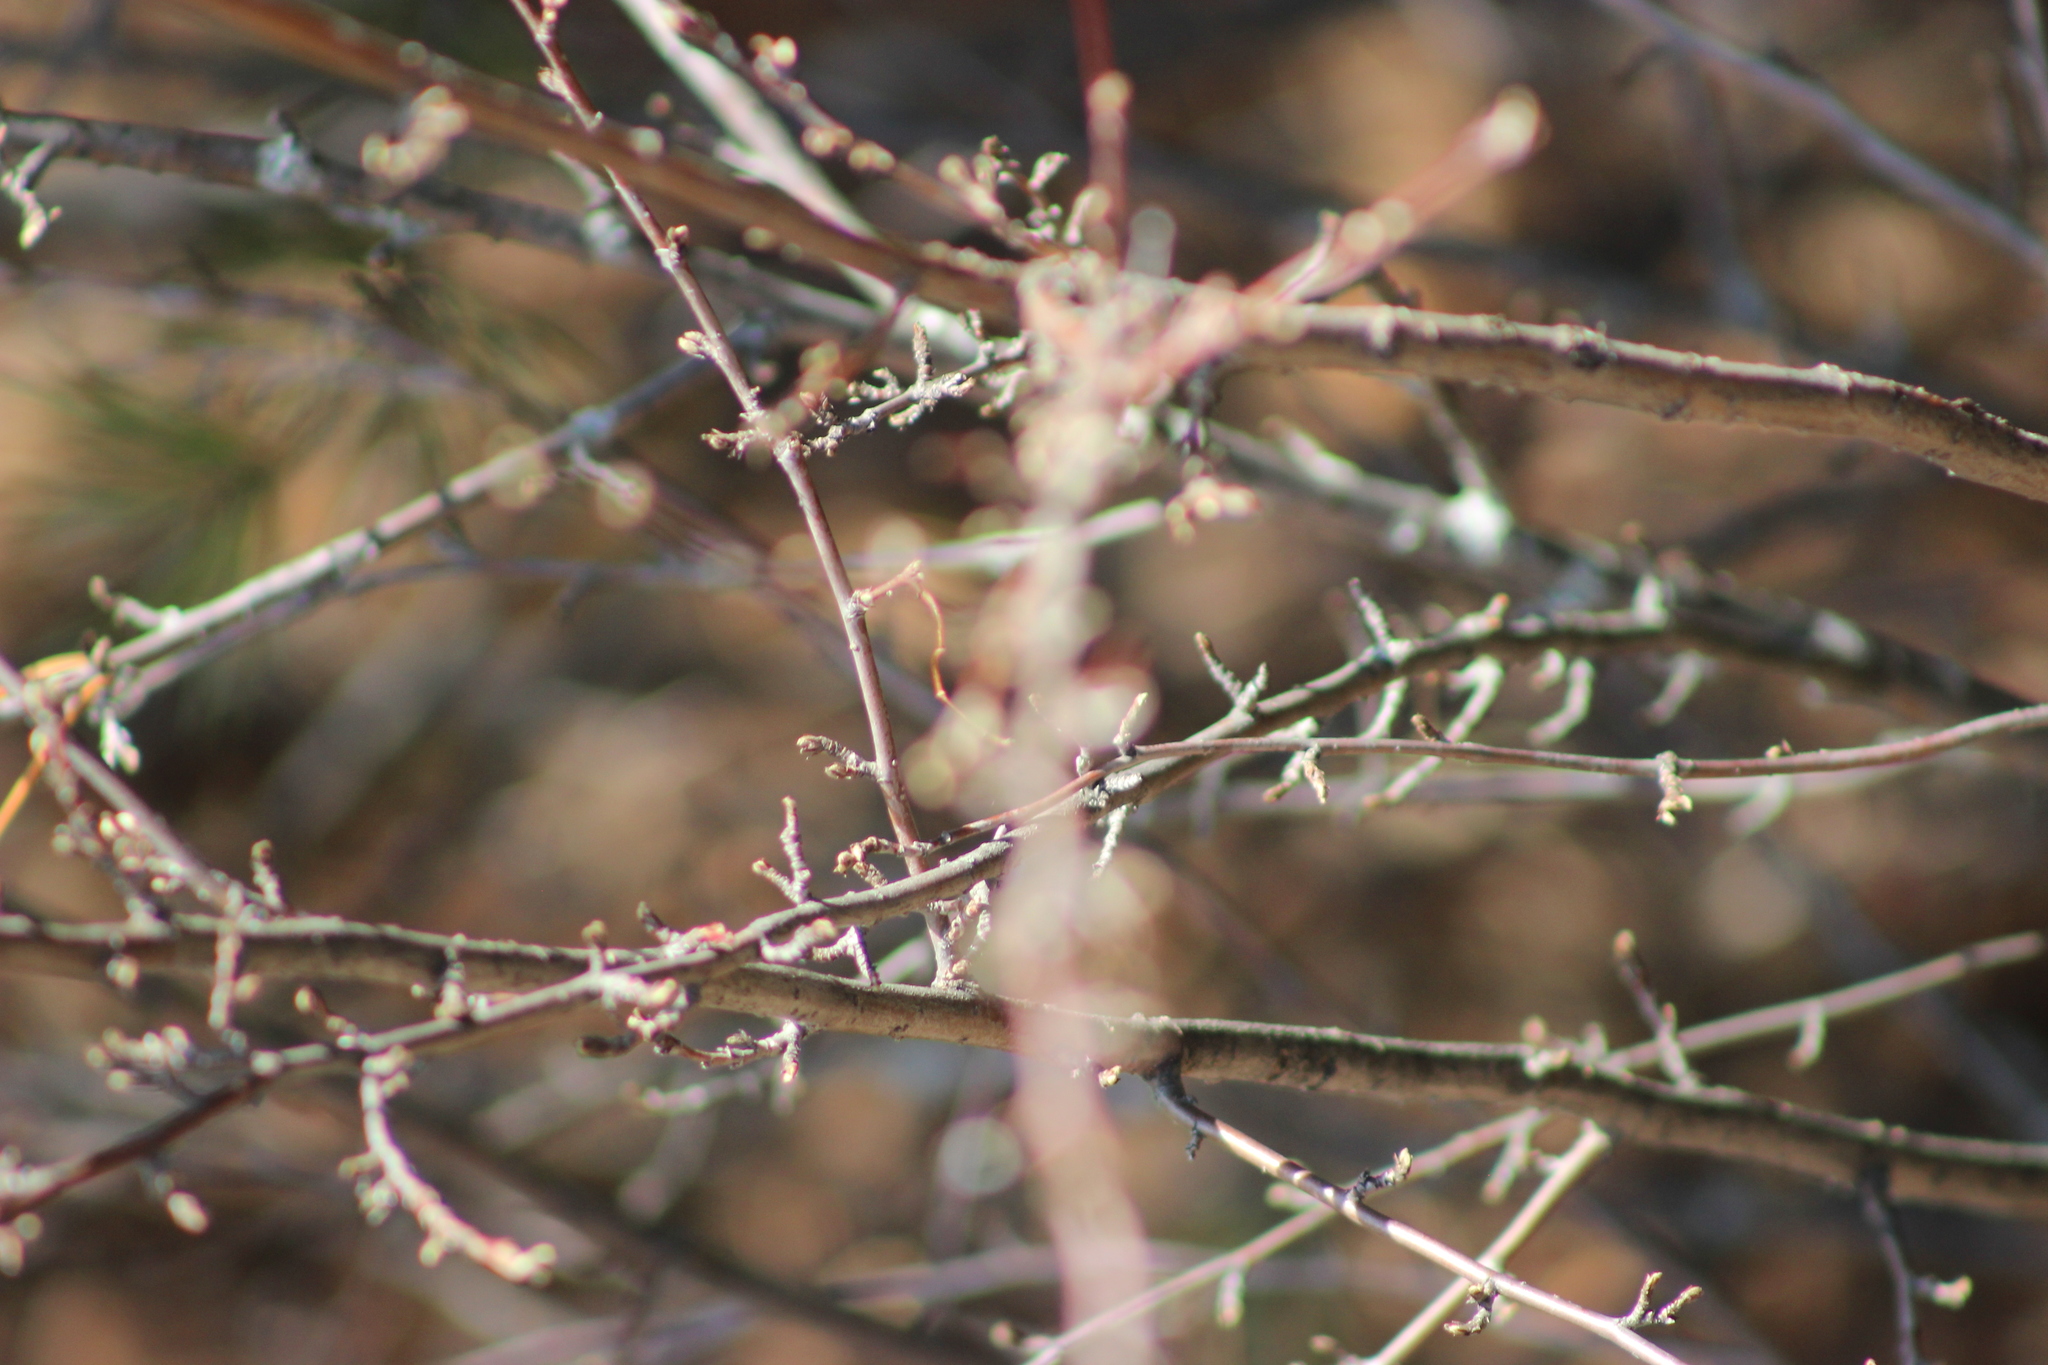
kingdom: Plantae
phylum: Tracheophyta
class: Magnoliopsida
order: Rosales
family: Rosaceae
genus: Cotoneaster
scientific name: Cotoneaster melanocarpus
